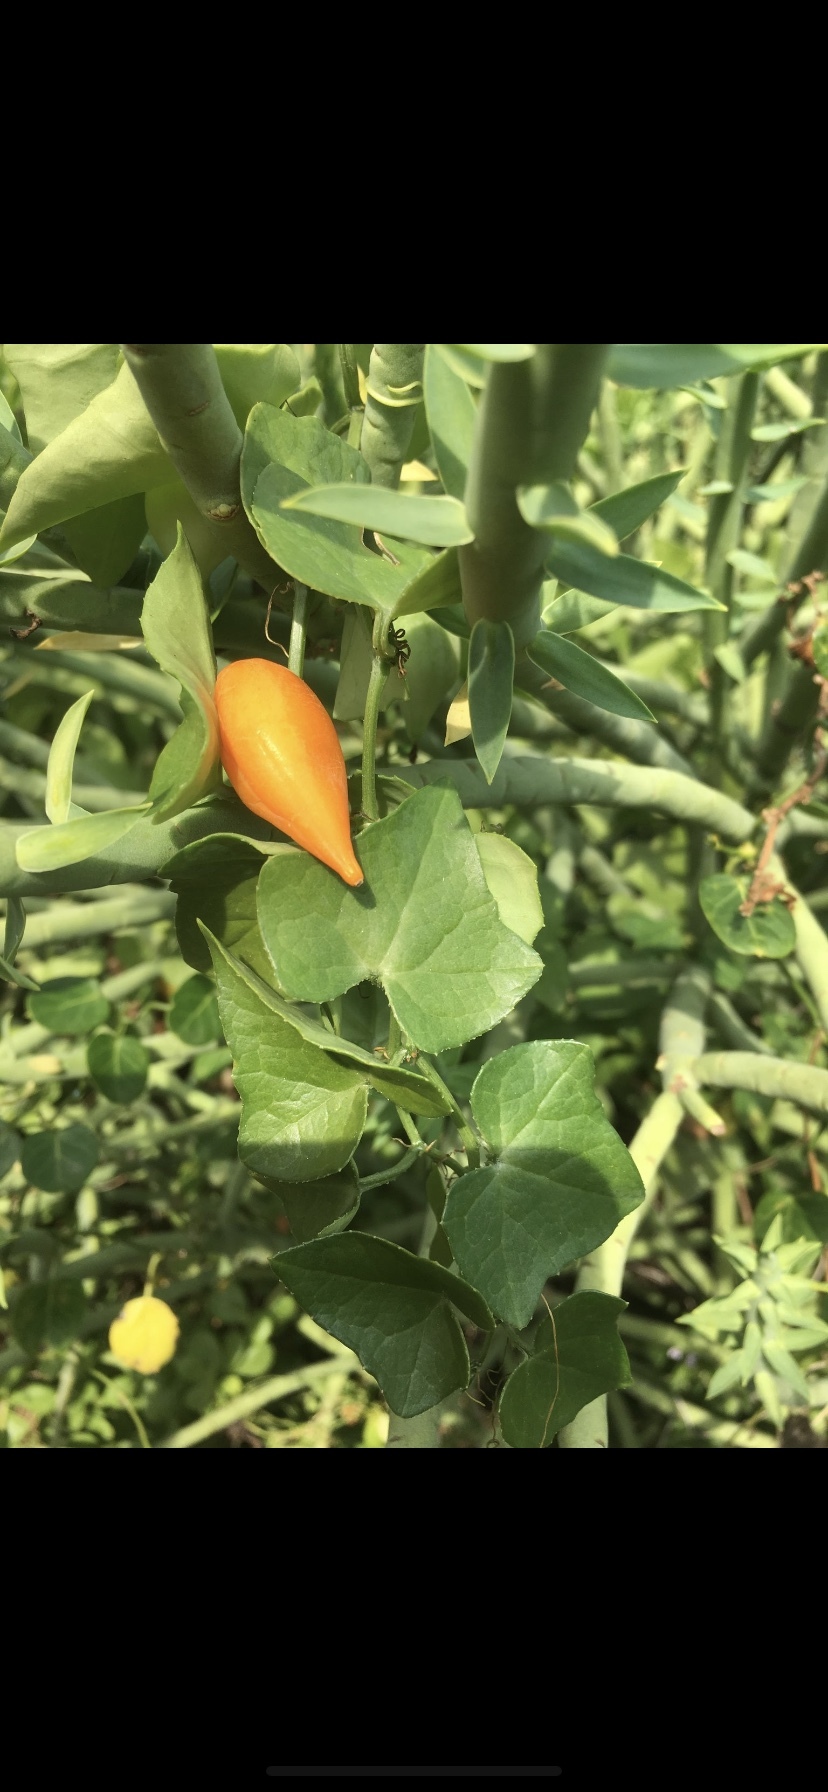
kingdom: Plantae
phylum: Tracheophyta
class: Magnoliopsida
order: Cucurbitales
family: Cucurbitaceae
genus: Kedrostis
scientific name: Kedrostis nana
